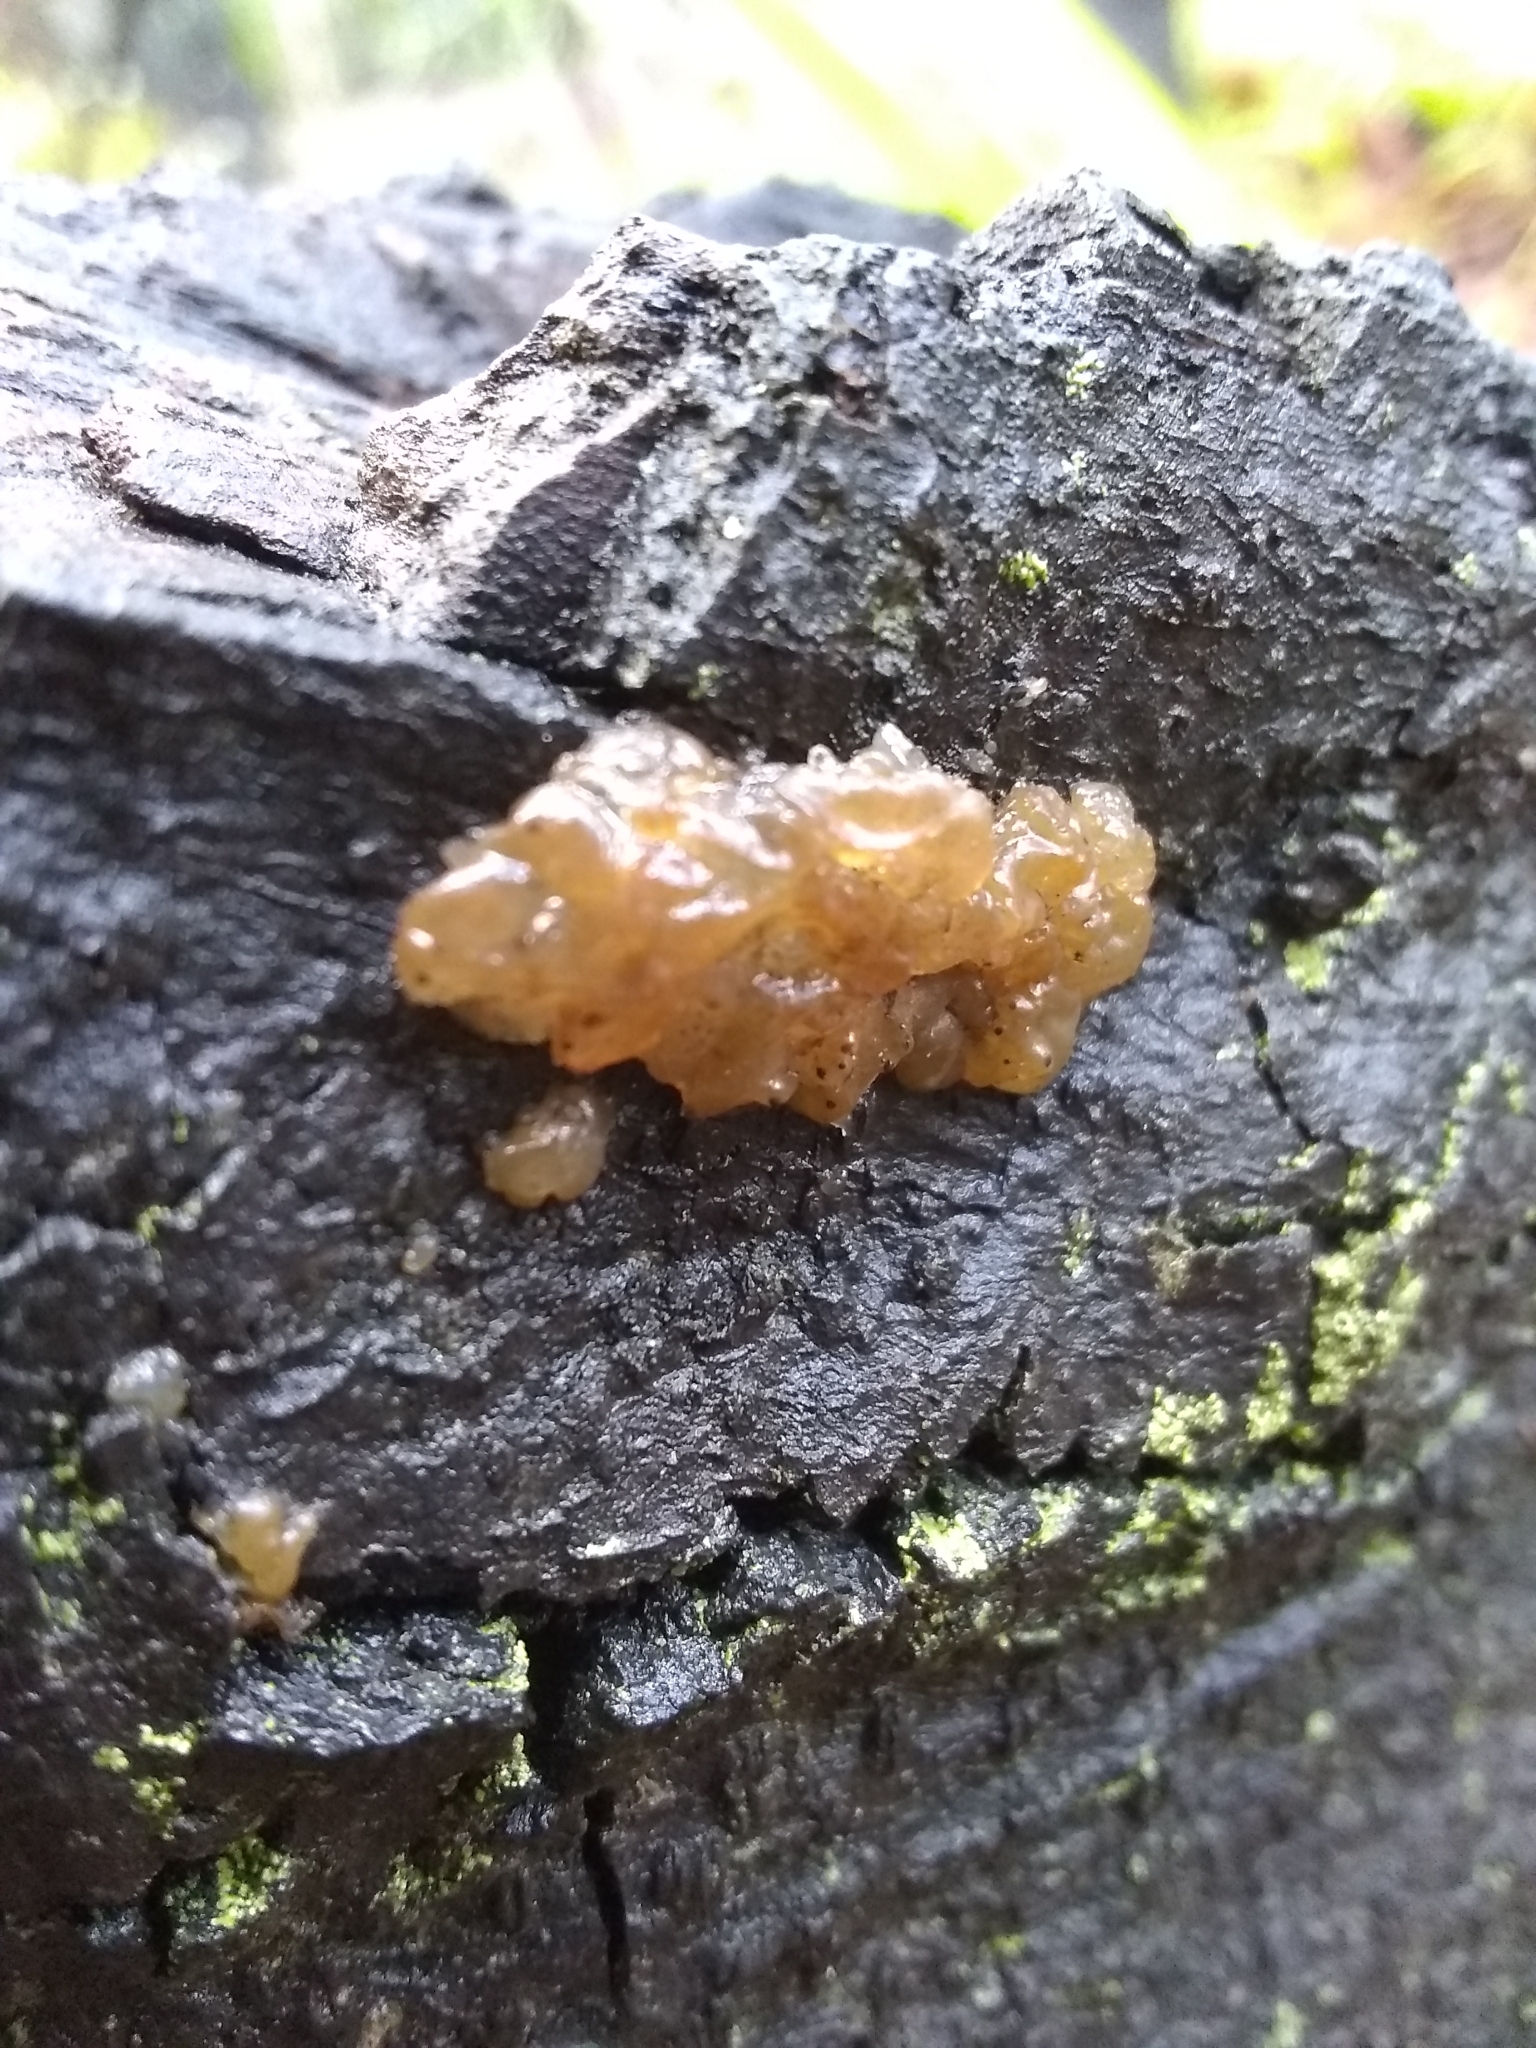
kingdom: Fungi
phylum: Basidiomycota
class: Agaricomycetes
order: Auriculariales
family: Hyaloriaceae
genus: Myxarium
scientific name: Myxarium nucleatum
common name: Crystal brain fungus
